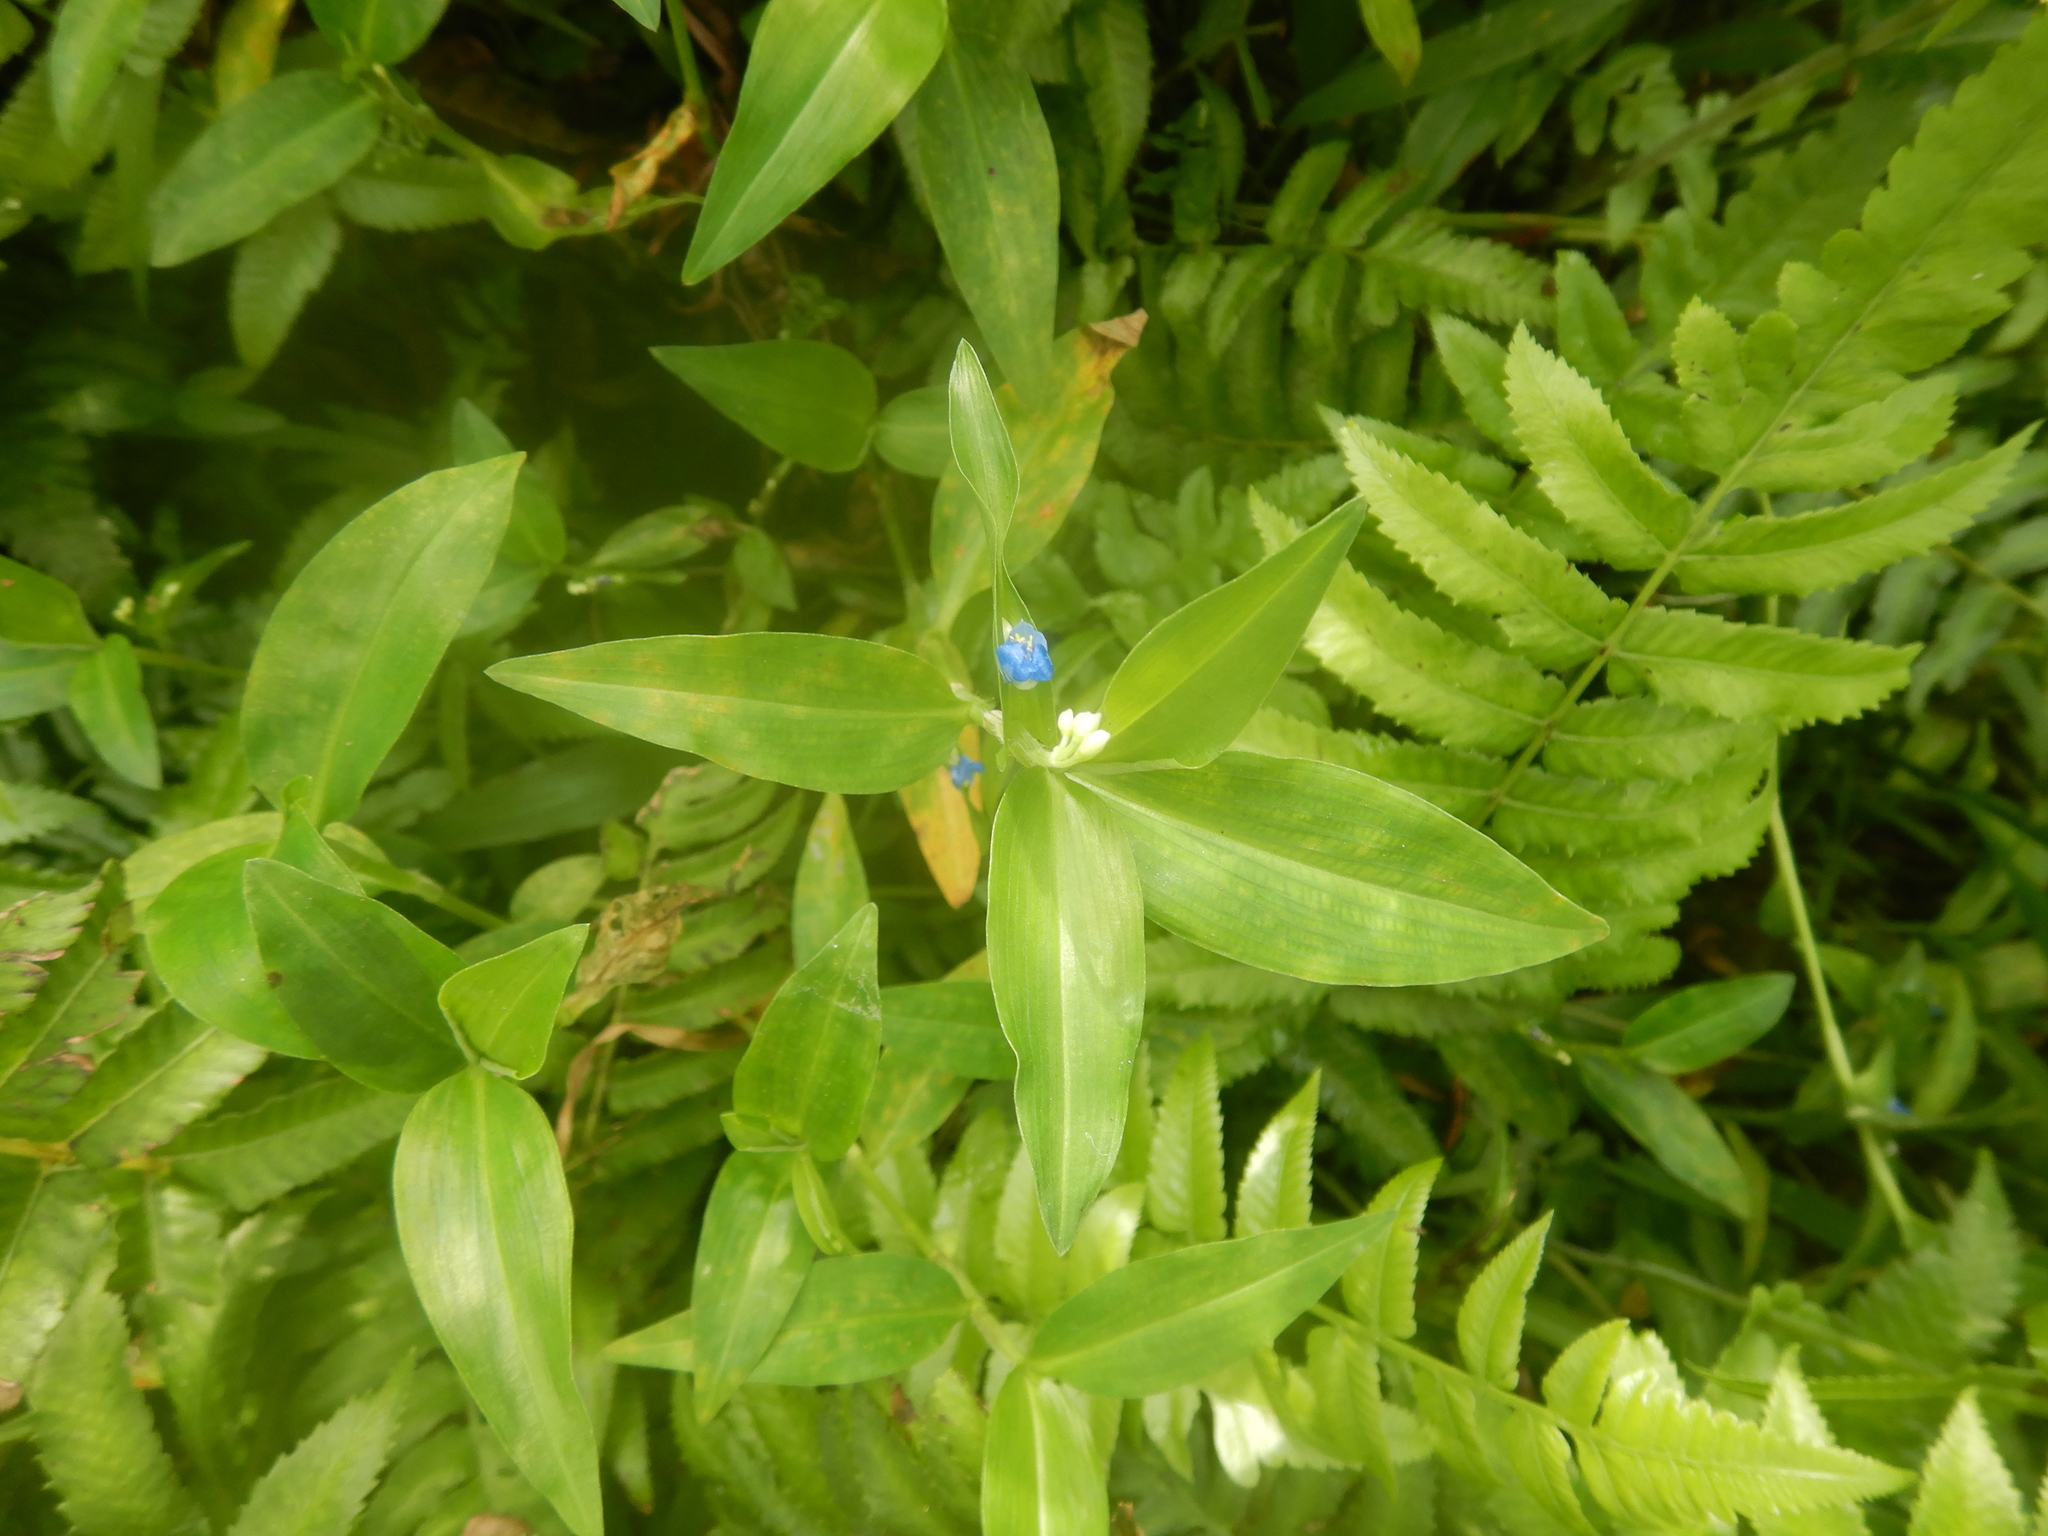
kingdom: Plantae
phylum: Tracheophyta
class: Liliopsida
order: Commelinales
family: Commelinaceae
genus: Commelina
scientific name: Commelina diffusa
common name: Climbing dayflower
